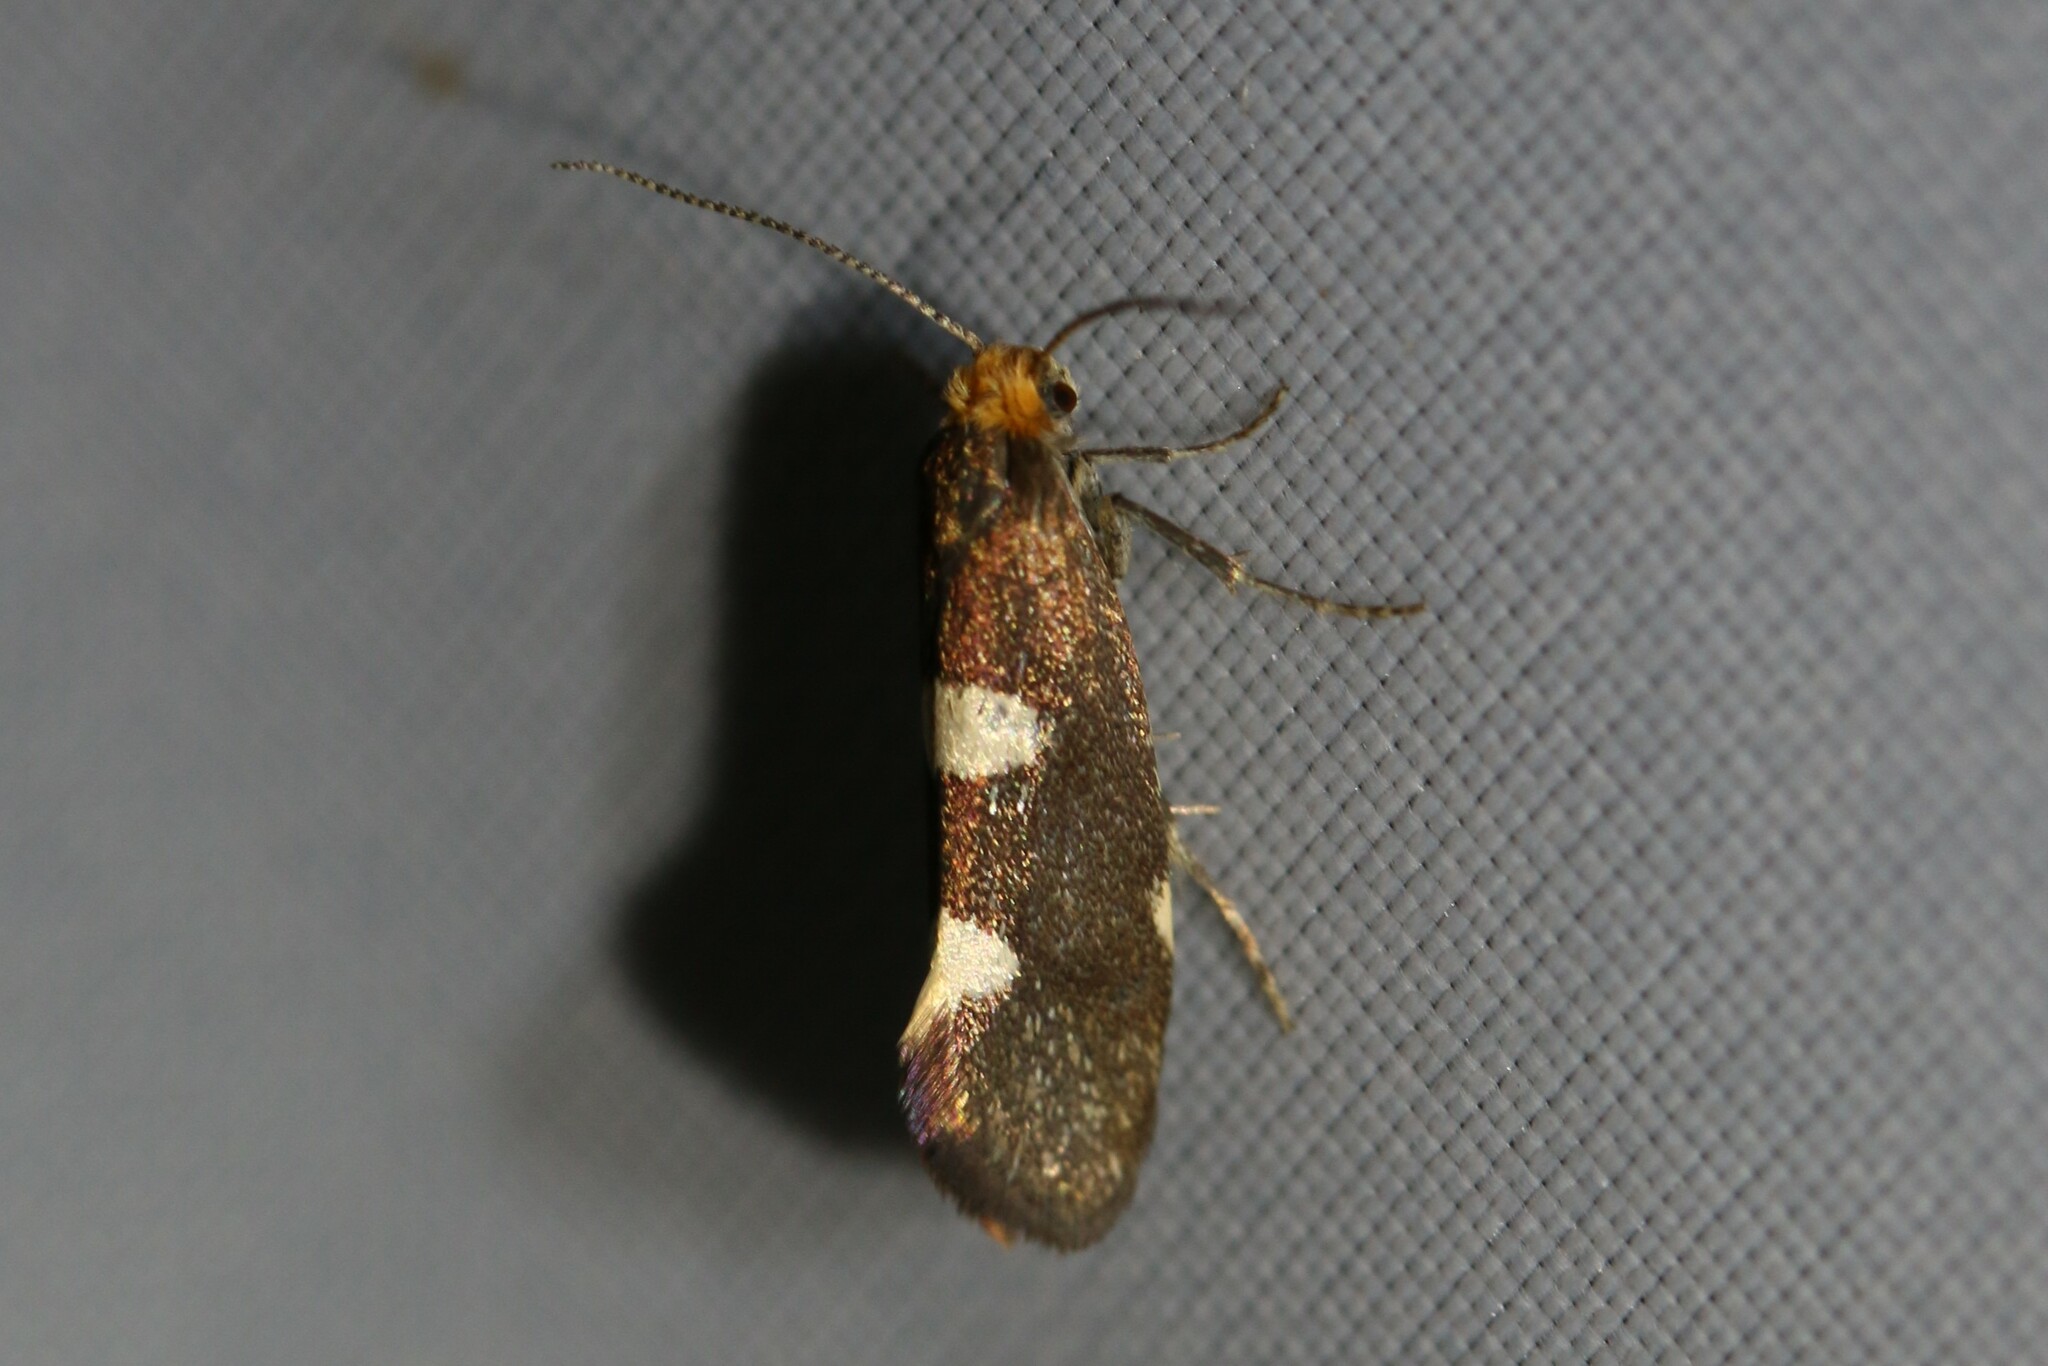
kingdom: Animalia
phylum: Arthropoda
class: Insecta
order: Lepidoptera
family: Incurvariidae
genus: Incurvaria
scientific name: Incurvaria masculella
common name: Feathered leaf-cutter
